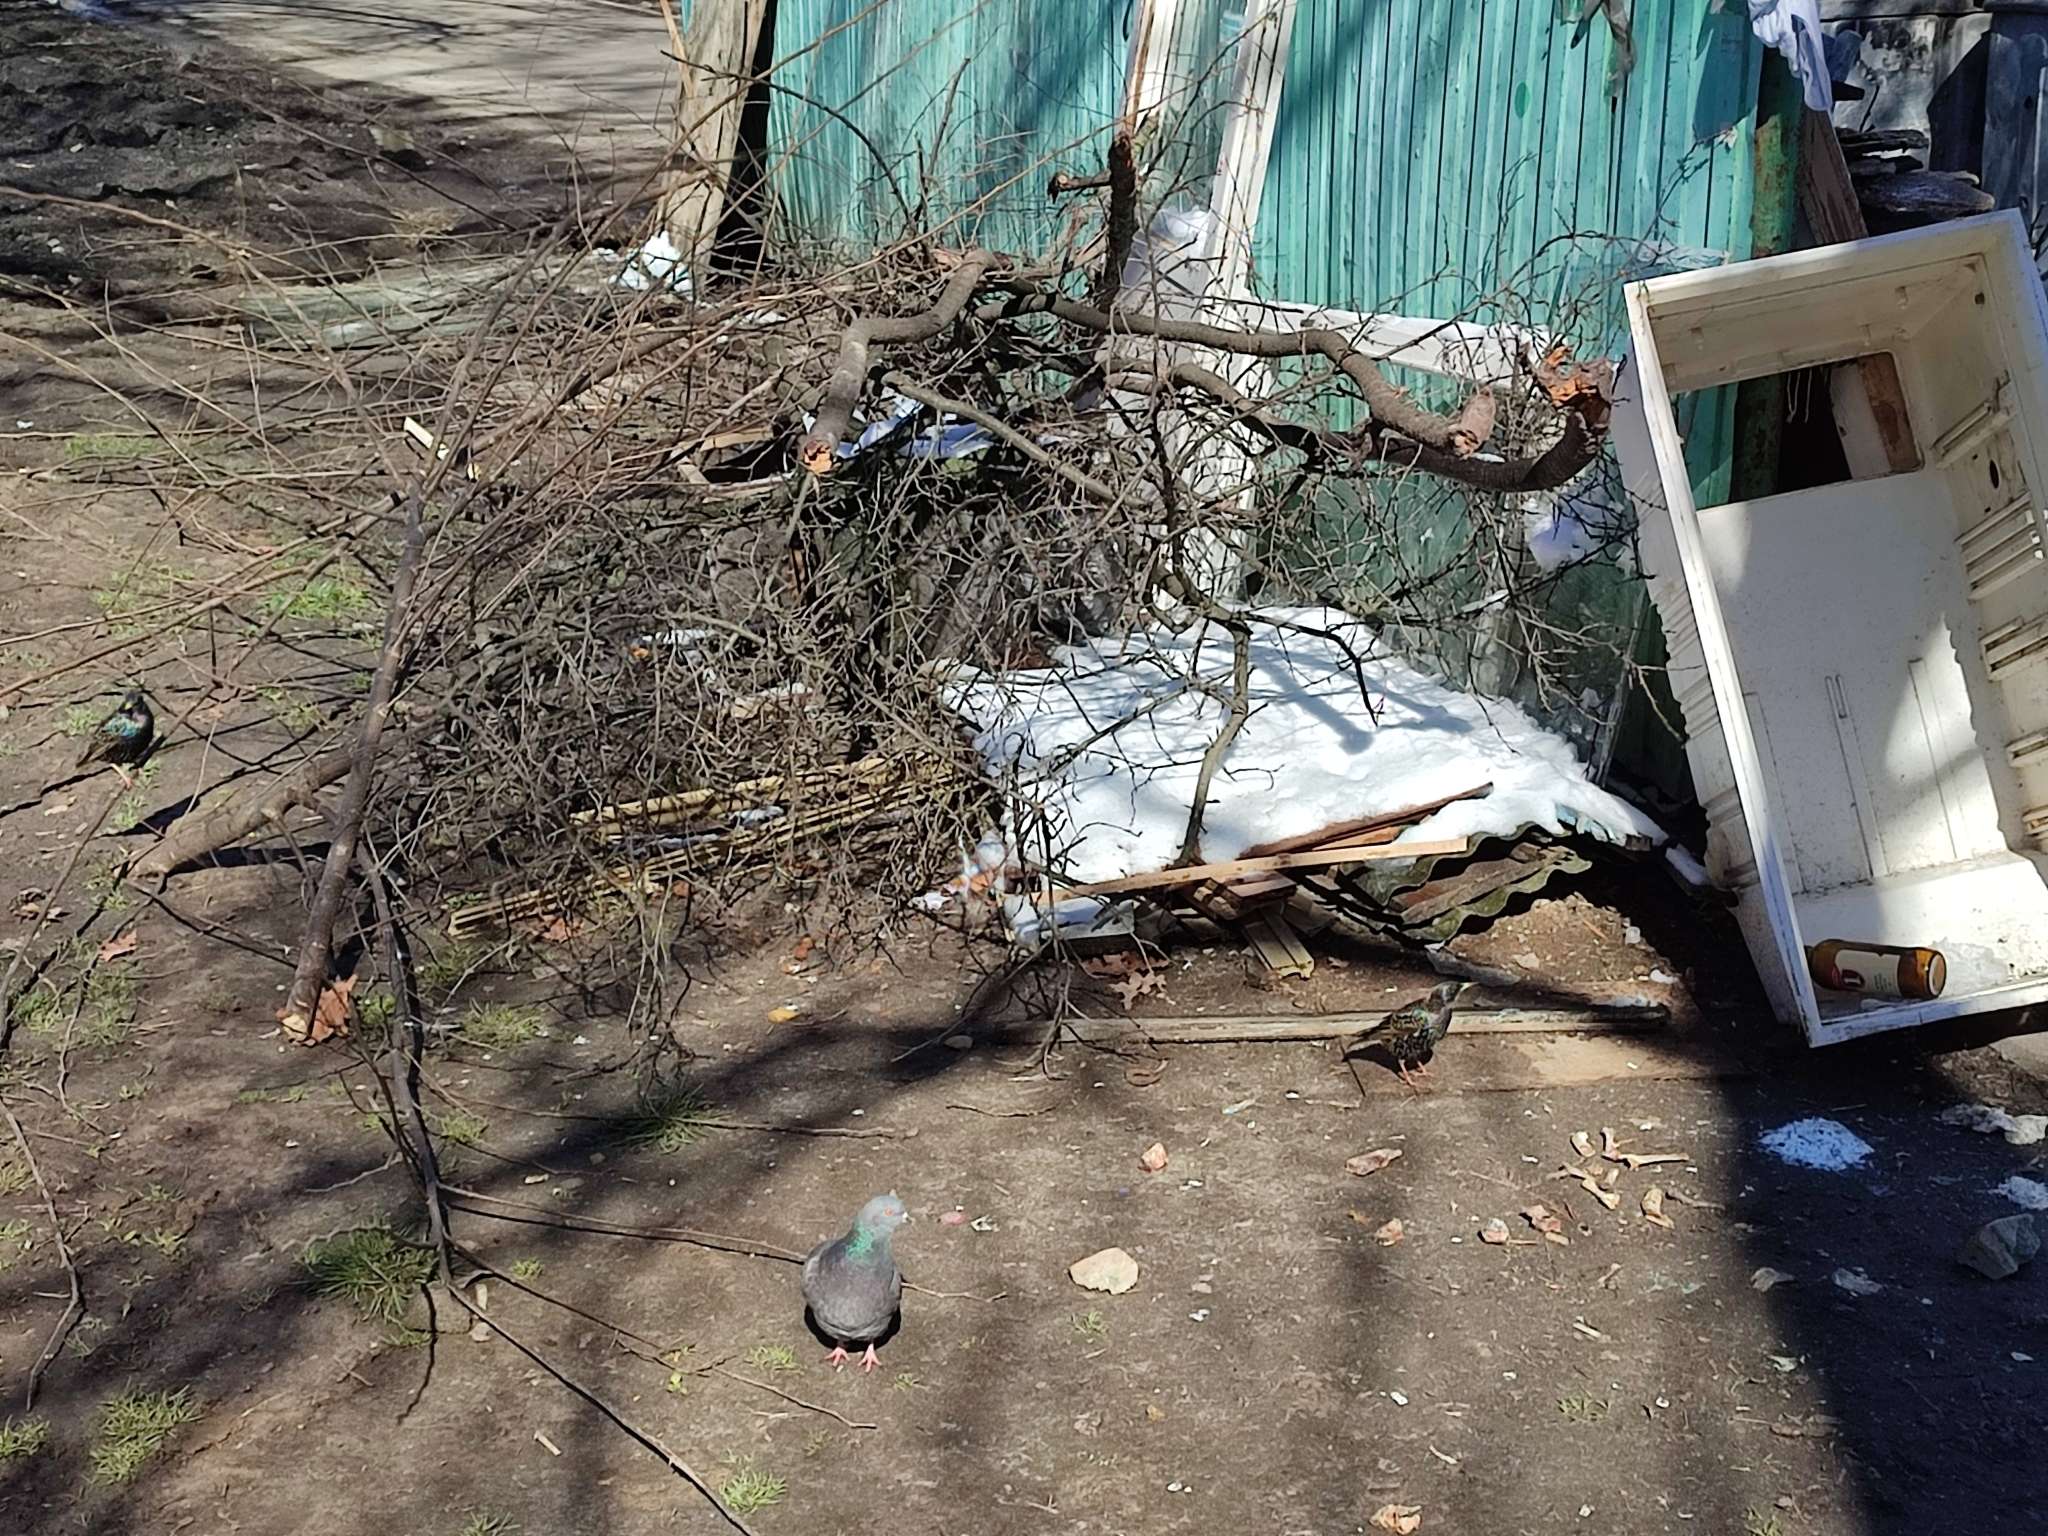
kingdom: Animalia
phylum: Chordata
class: Aves
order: Passeriformes
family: Sturnidae
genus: Sturnus
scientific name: Sturnus vulgaris
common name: Common starling
